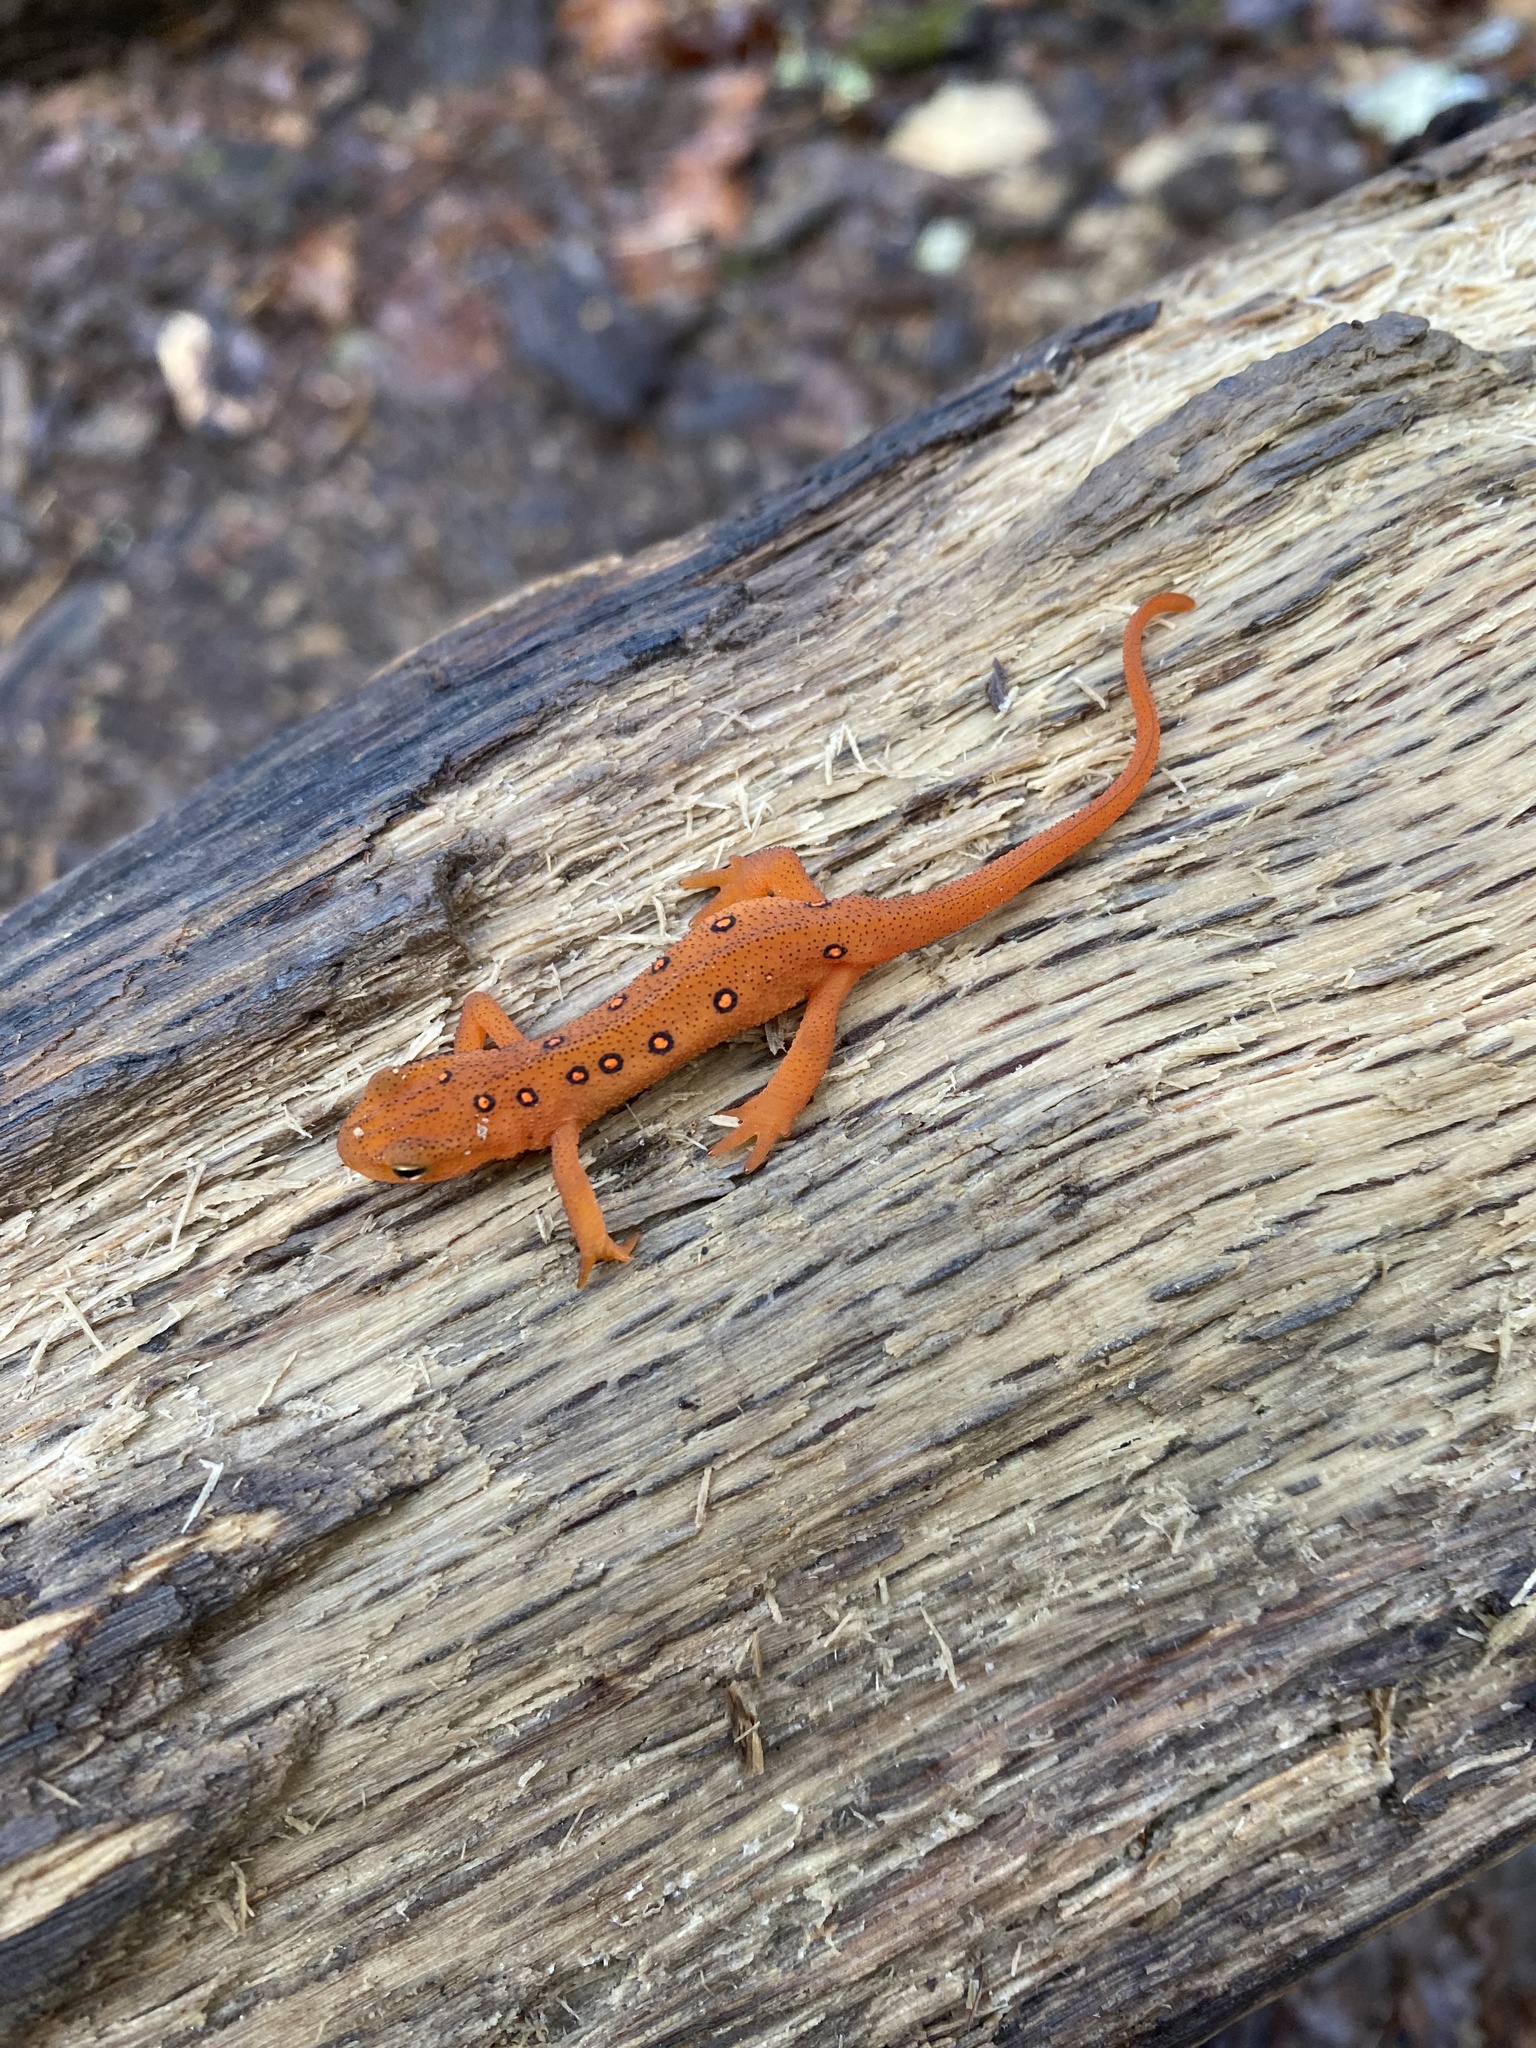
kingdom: Animalia
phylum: Chordata
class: Amphibia
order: Caudata
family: Salamandridae
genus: Notophthalmus
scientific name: Notophthalmus viridescens
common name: Eastern newt
